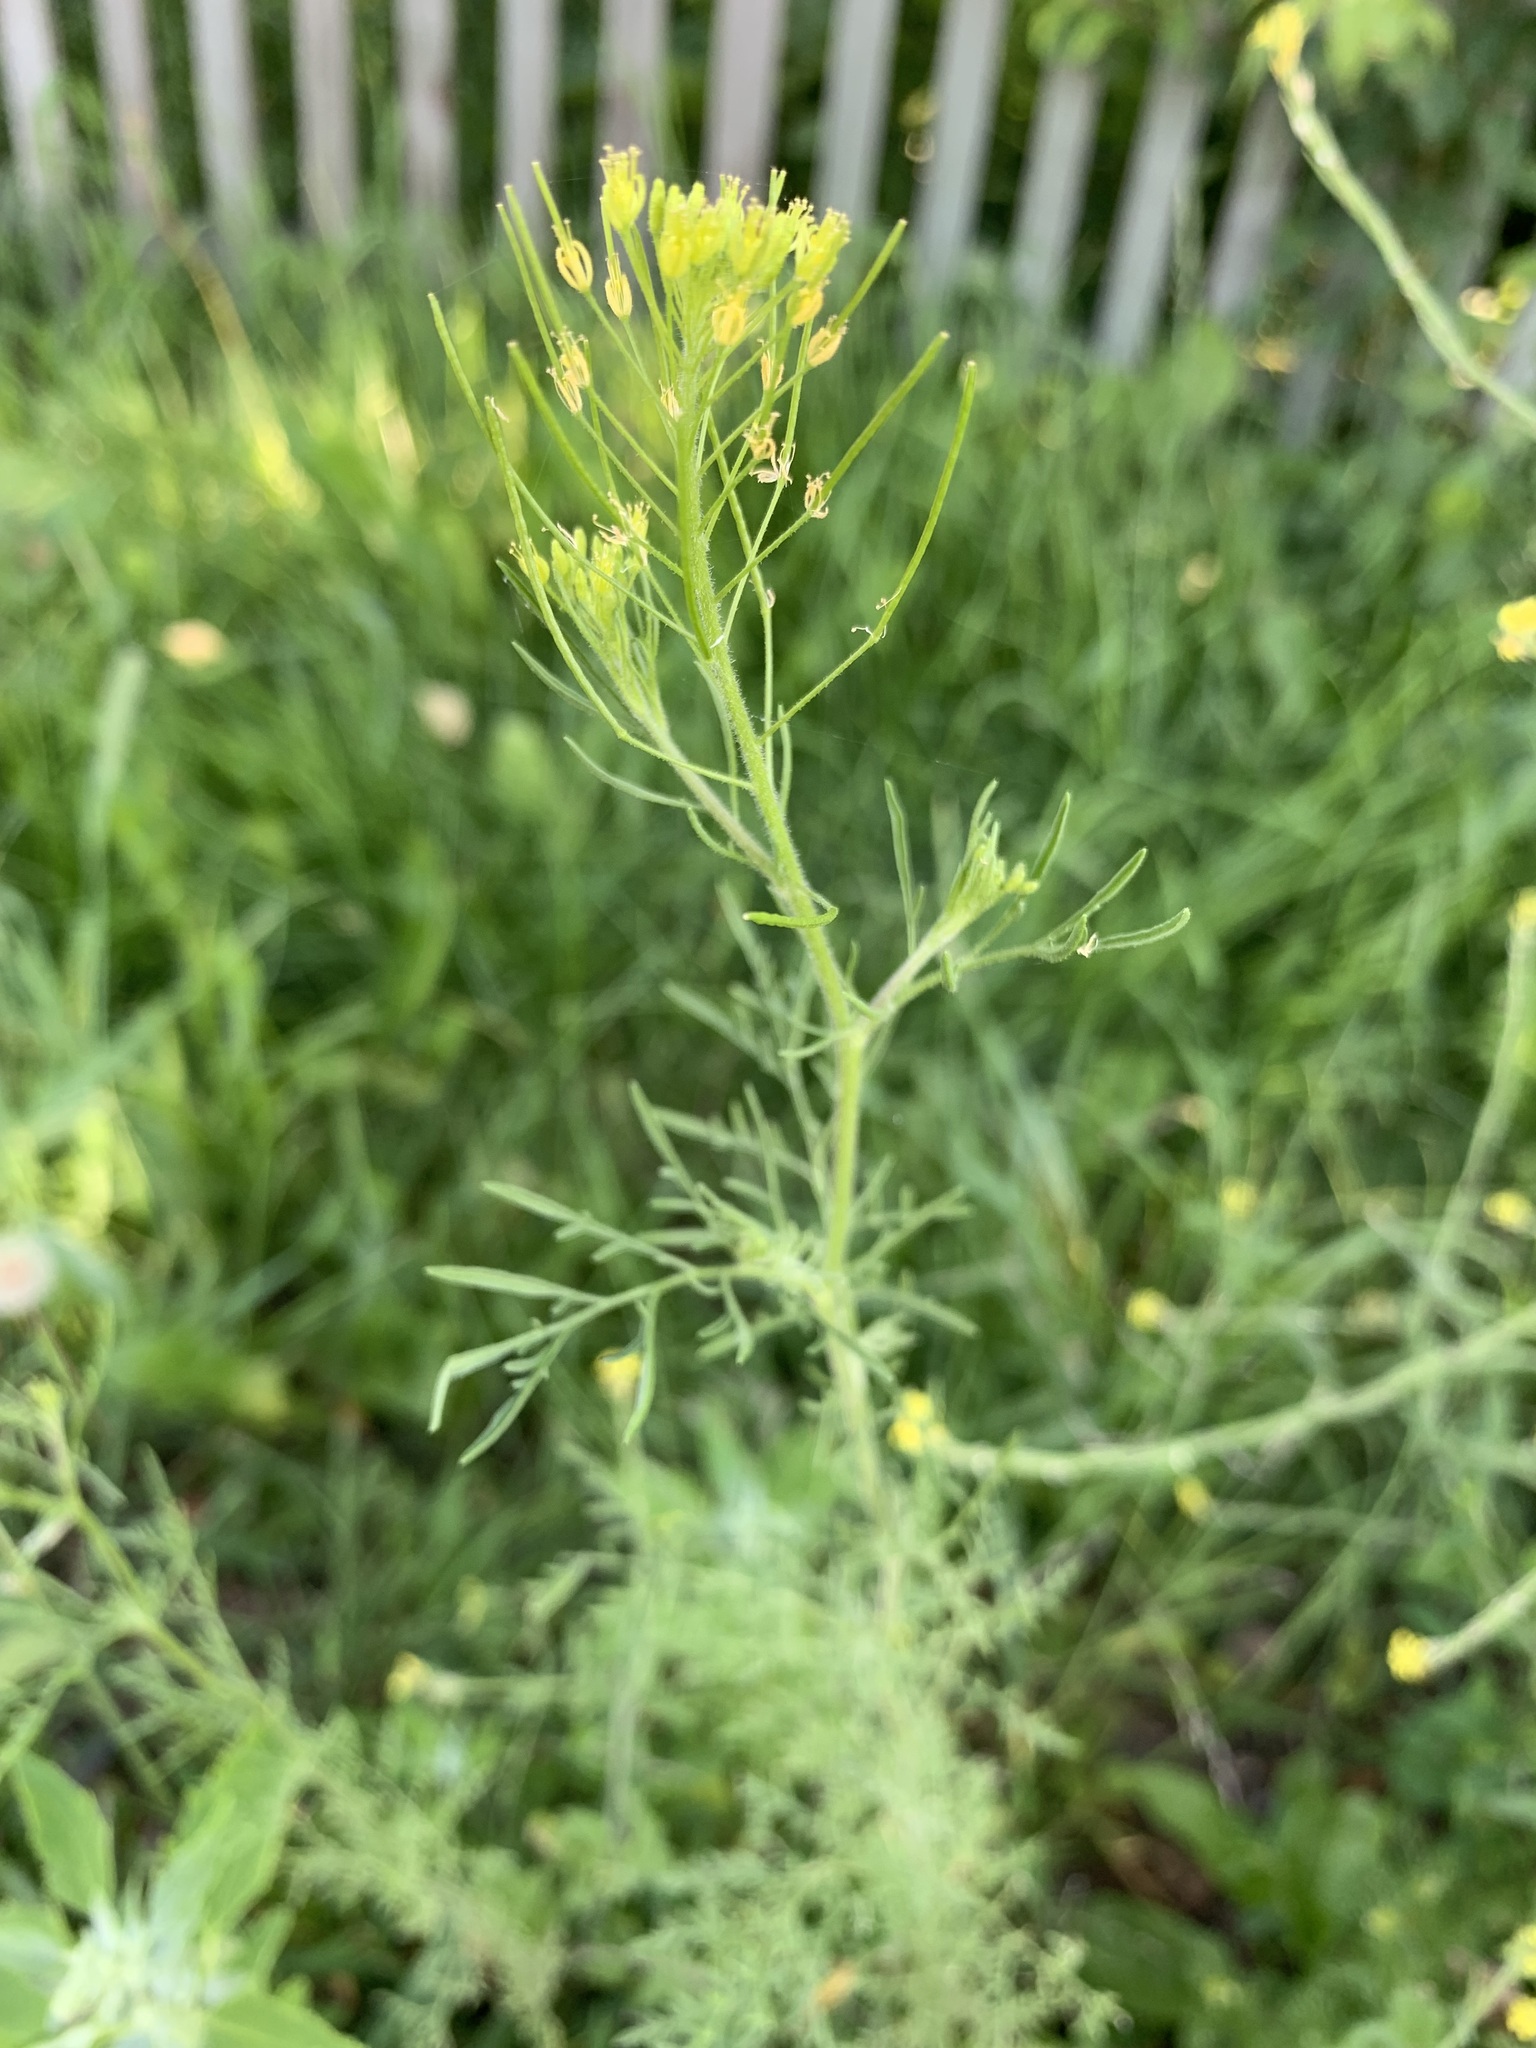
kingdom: Plantae
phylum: Tracheophyta
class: Magnoliopsida
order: Brassicales
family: Brassicaceae
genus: Descurainia
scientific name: Descurainia sophia
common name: Flixweed
